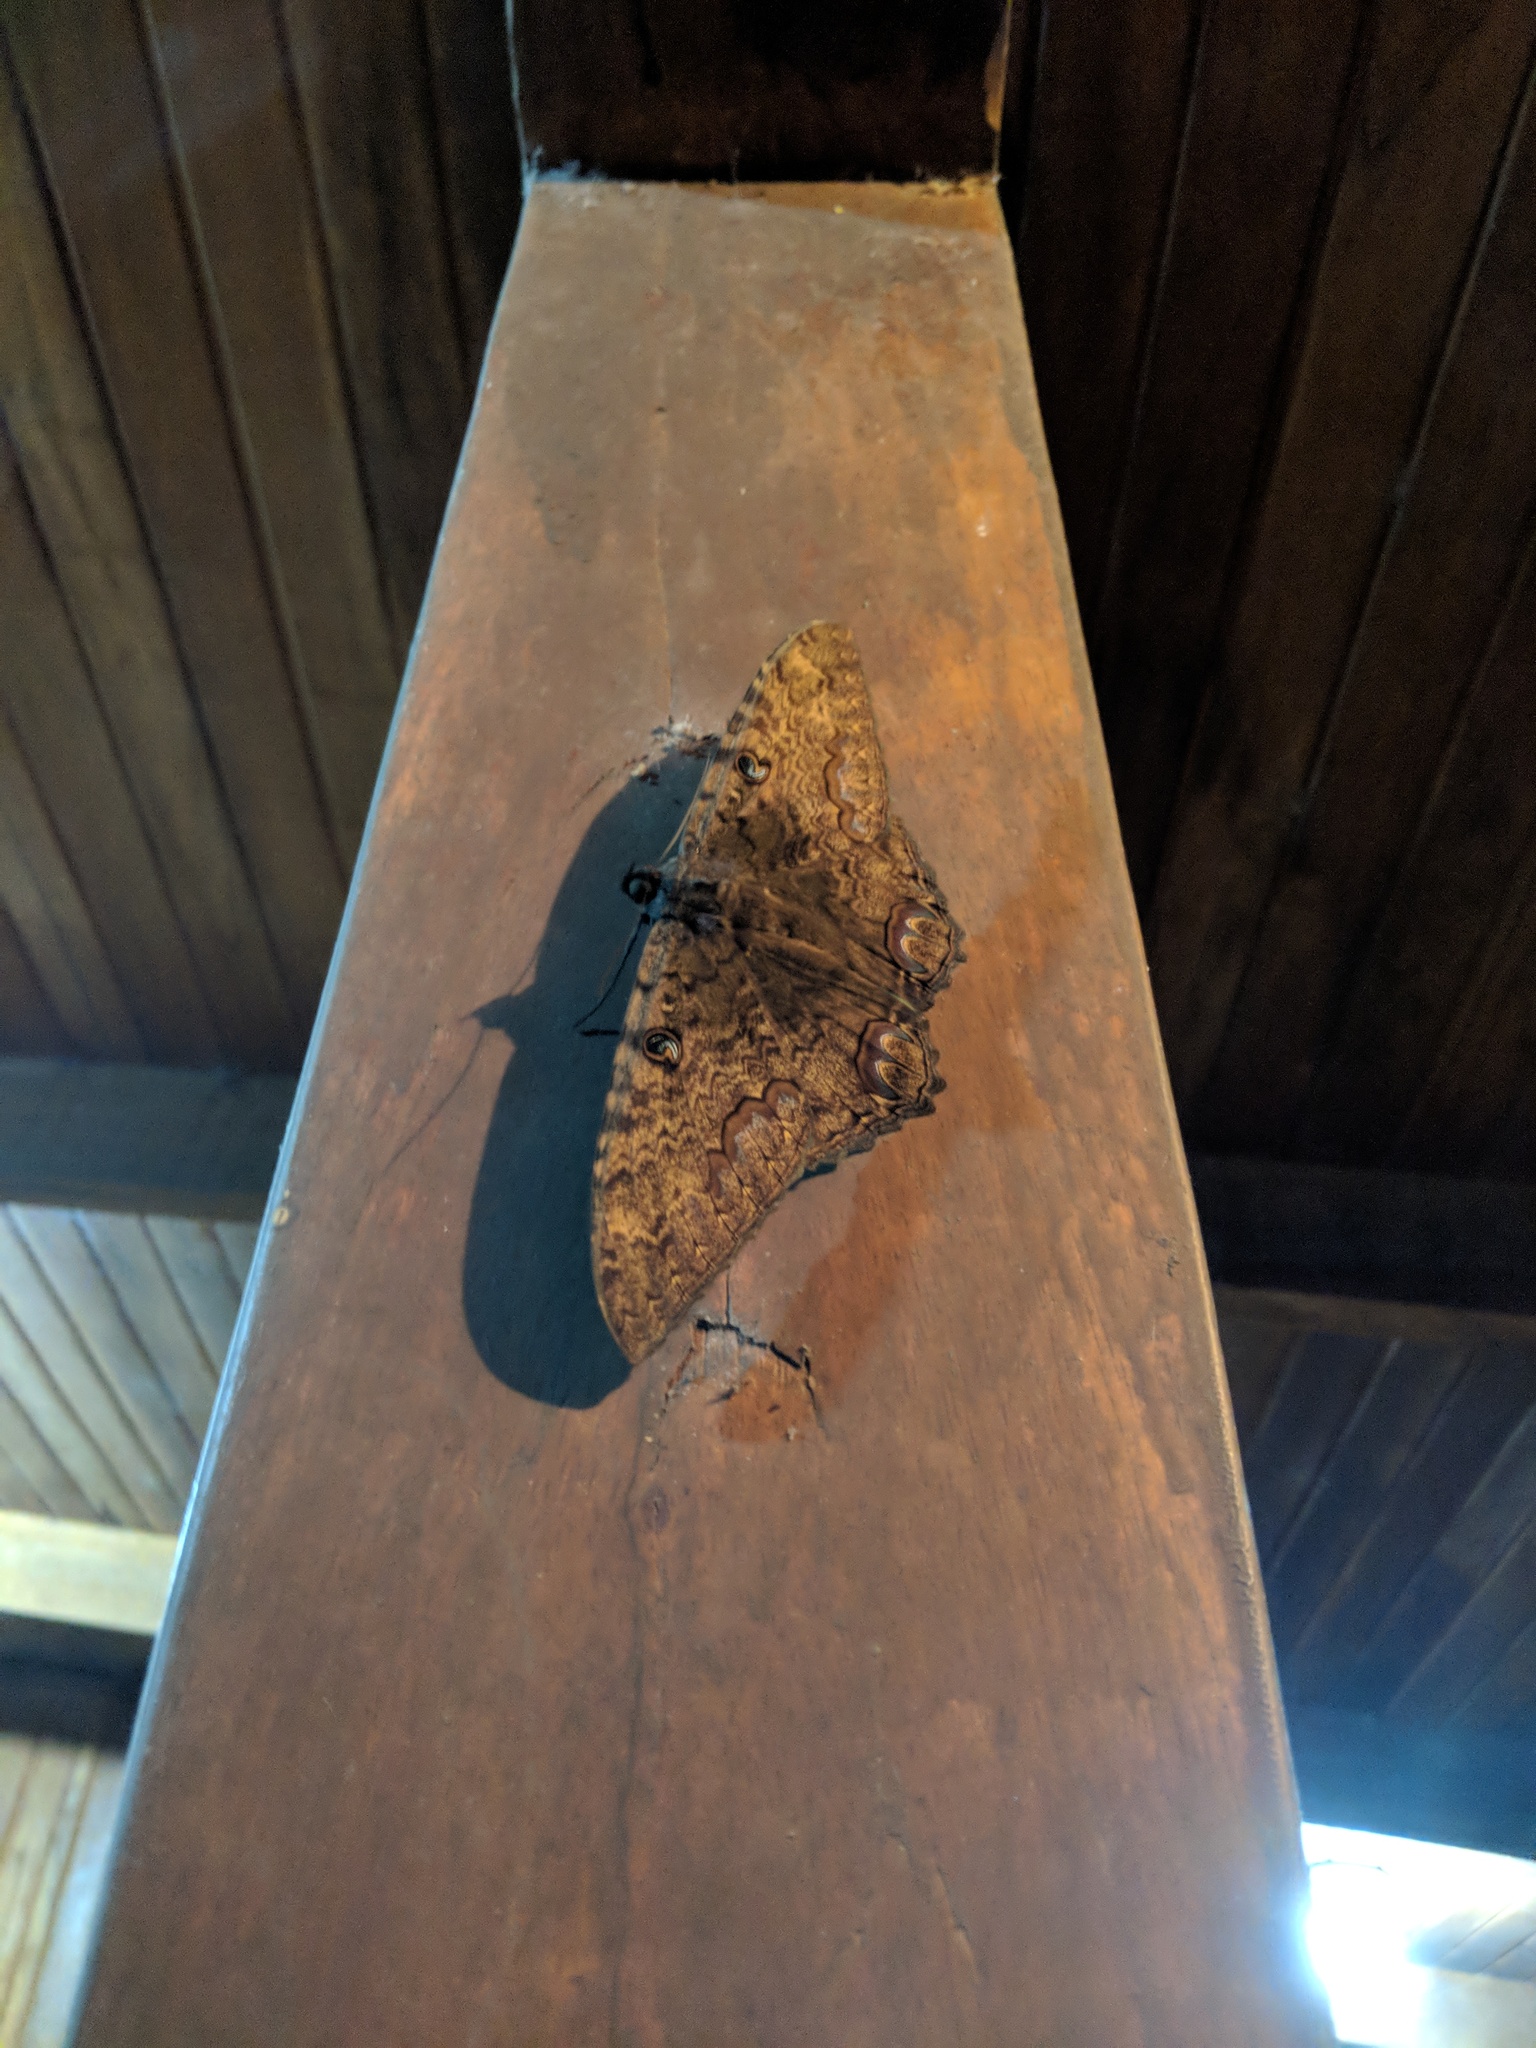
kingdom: Animalia
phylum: Arthropoda
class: Insecta
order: Lepidoptera
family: Erebidae
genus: Ascalapha
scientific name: Ascalapha odorata
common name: Black witch
